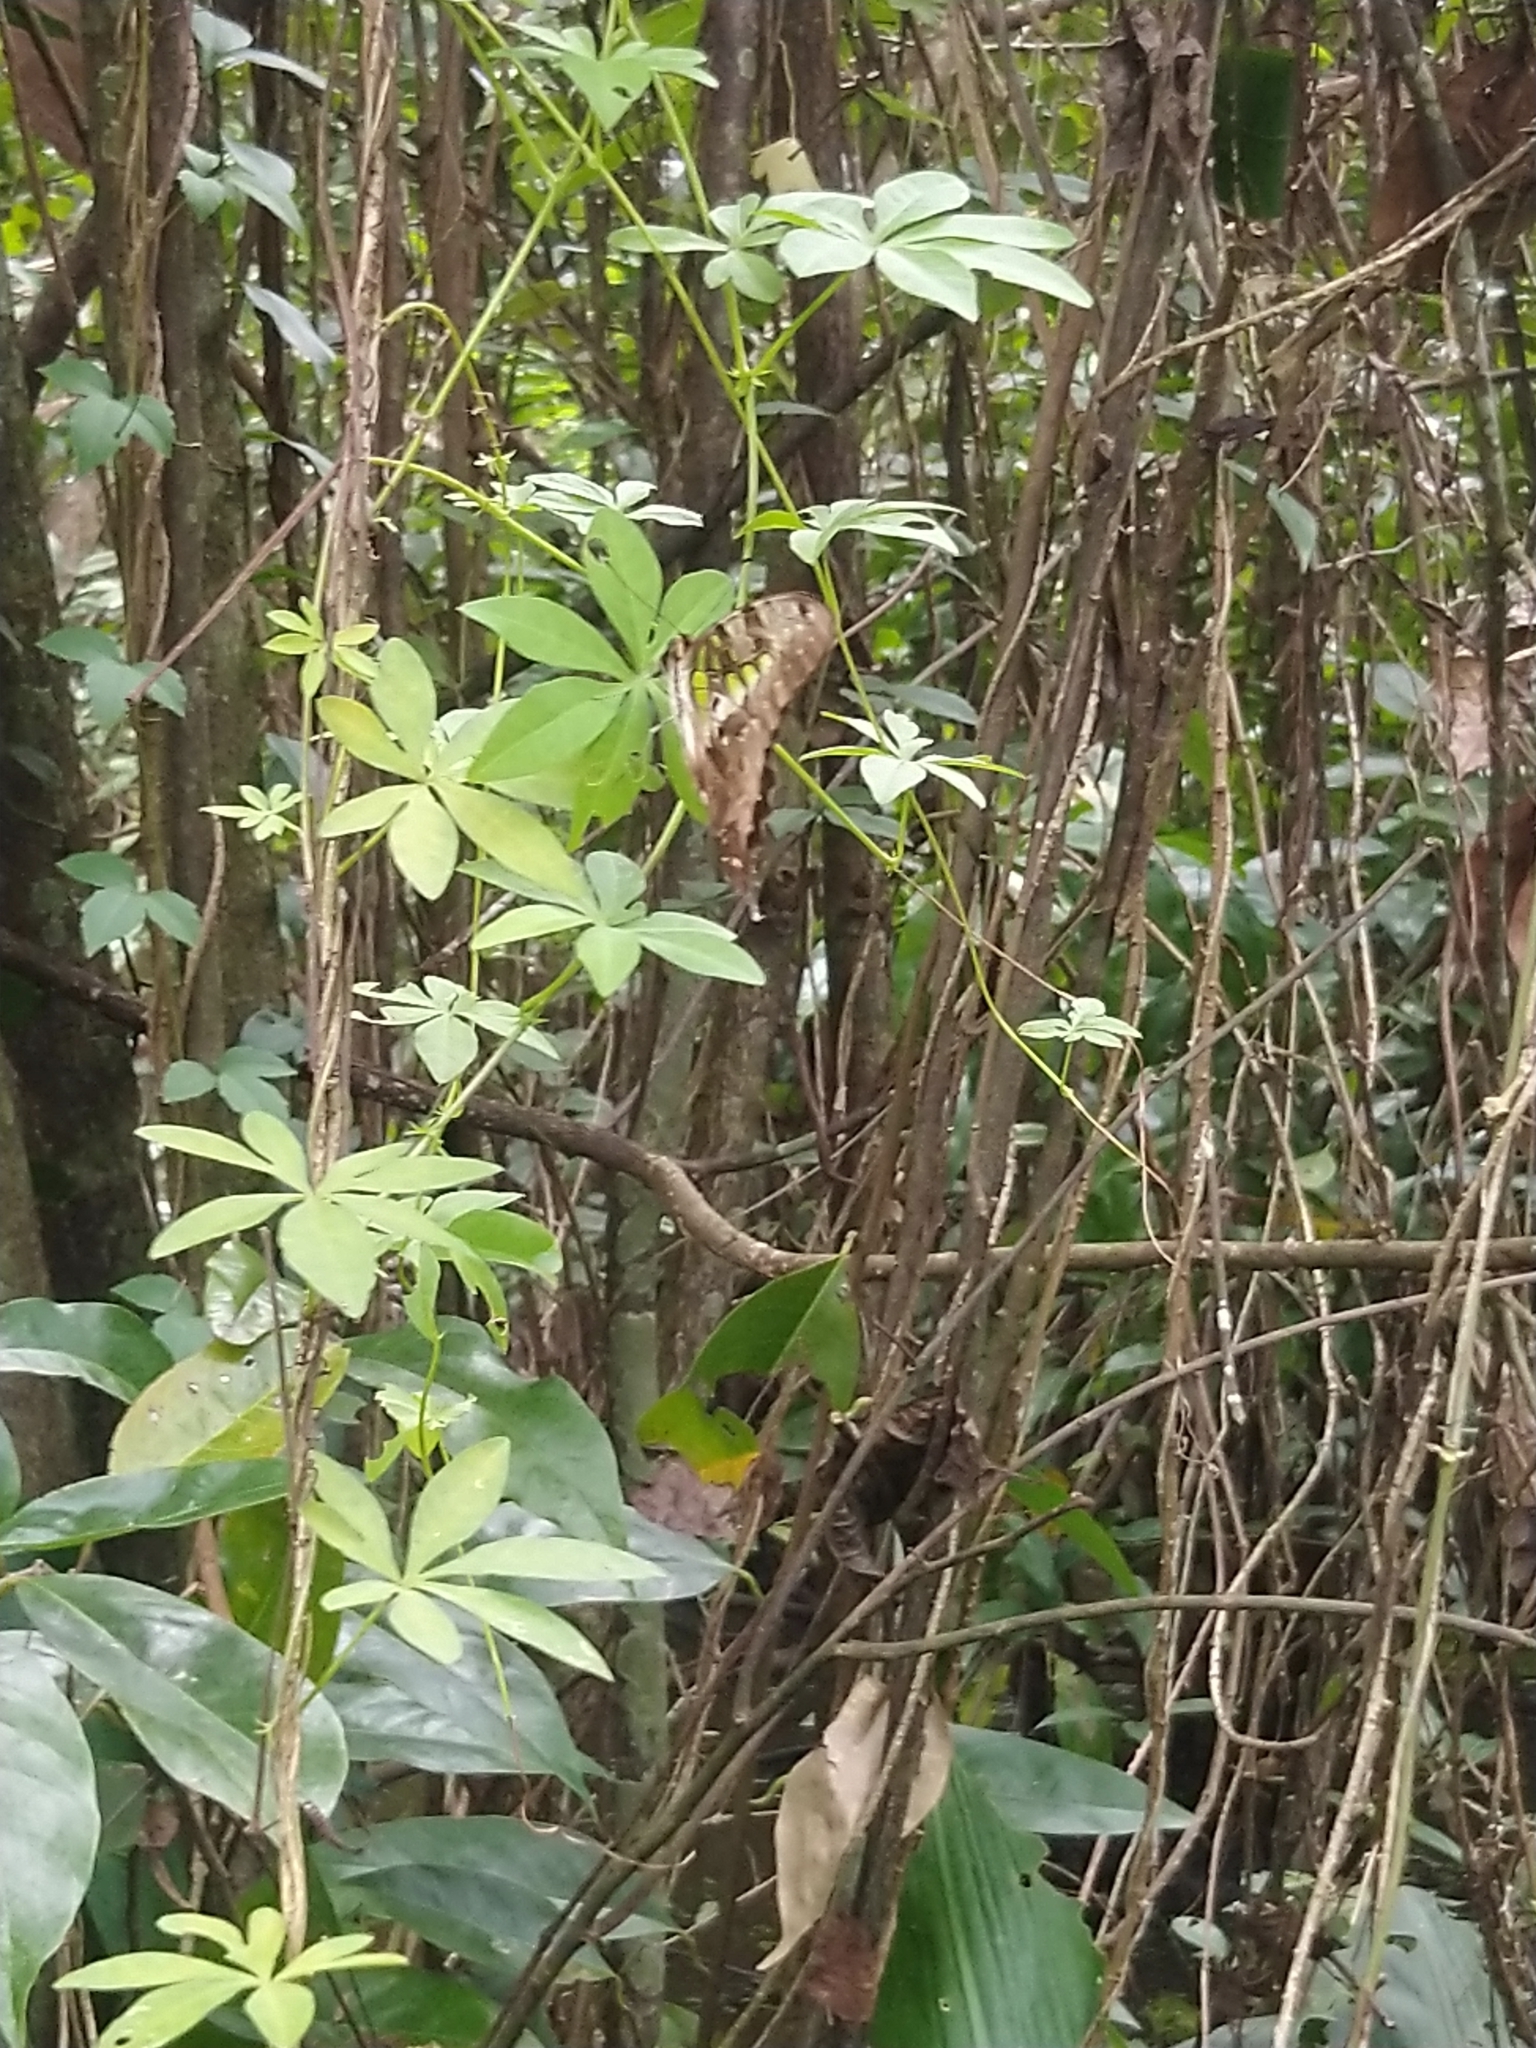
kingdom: Animalia
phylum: Arthropoda
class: Insecta
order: Lepidoptera
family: Papilionidae
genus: Graphium
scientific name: Graphium agamemnon
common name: Tailed jay
